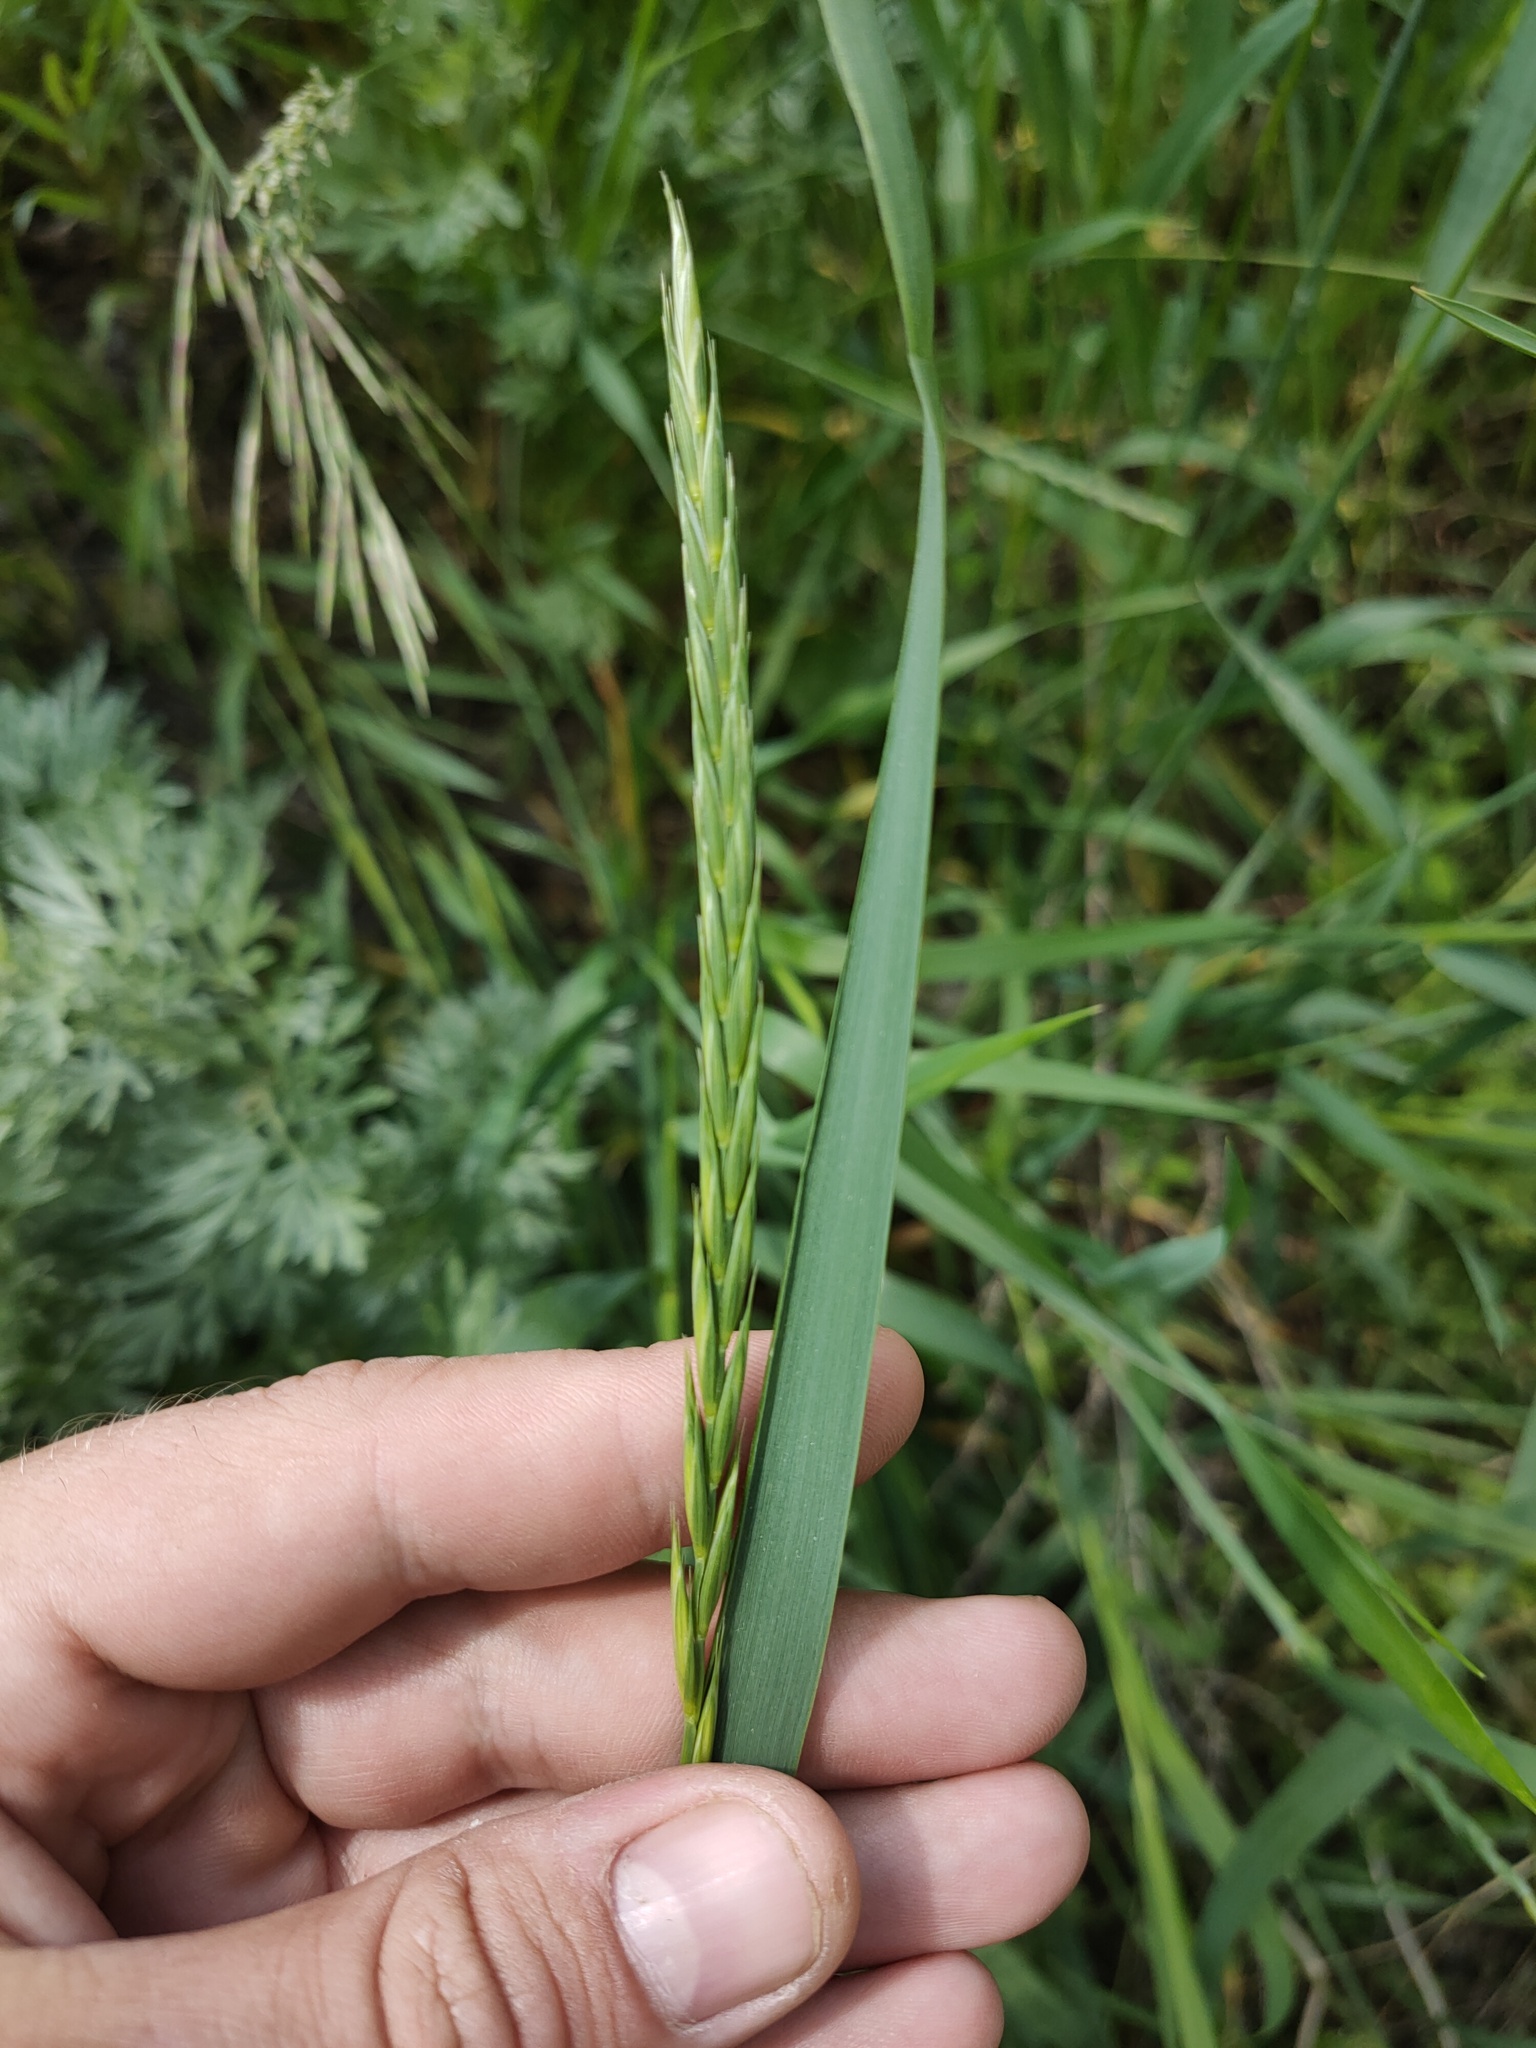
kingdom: Plantae
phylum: Tracheophyta
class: Liliopsida
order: Poales
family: Poaceae
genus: Elymus
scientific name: Elymus repens
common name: Quackgrass
